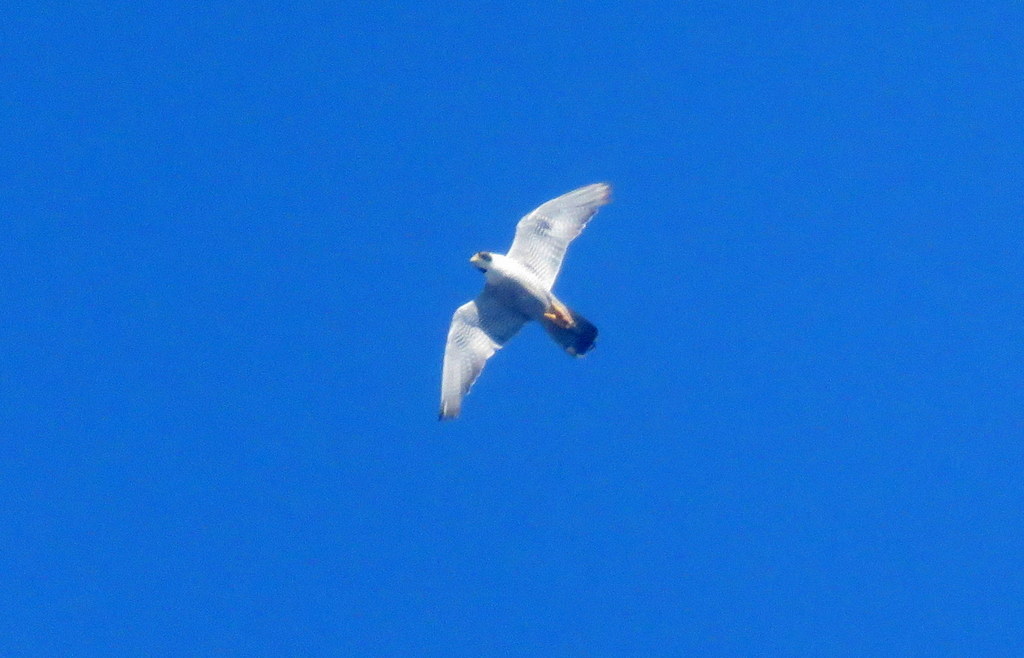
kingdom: Animalia
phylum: Chordata
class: Aves
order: Falconiformes
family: Falconidae
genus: Falco
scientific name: Falco peregrinus
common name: Peregrine falcon
